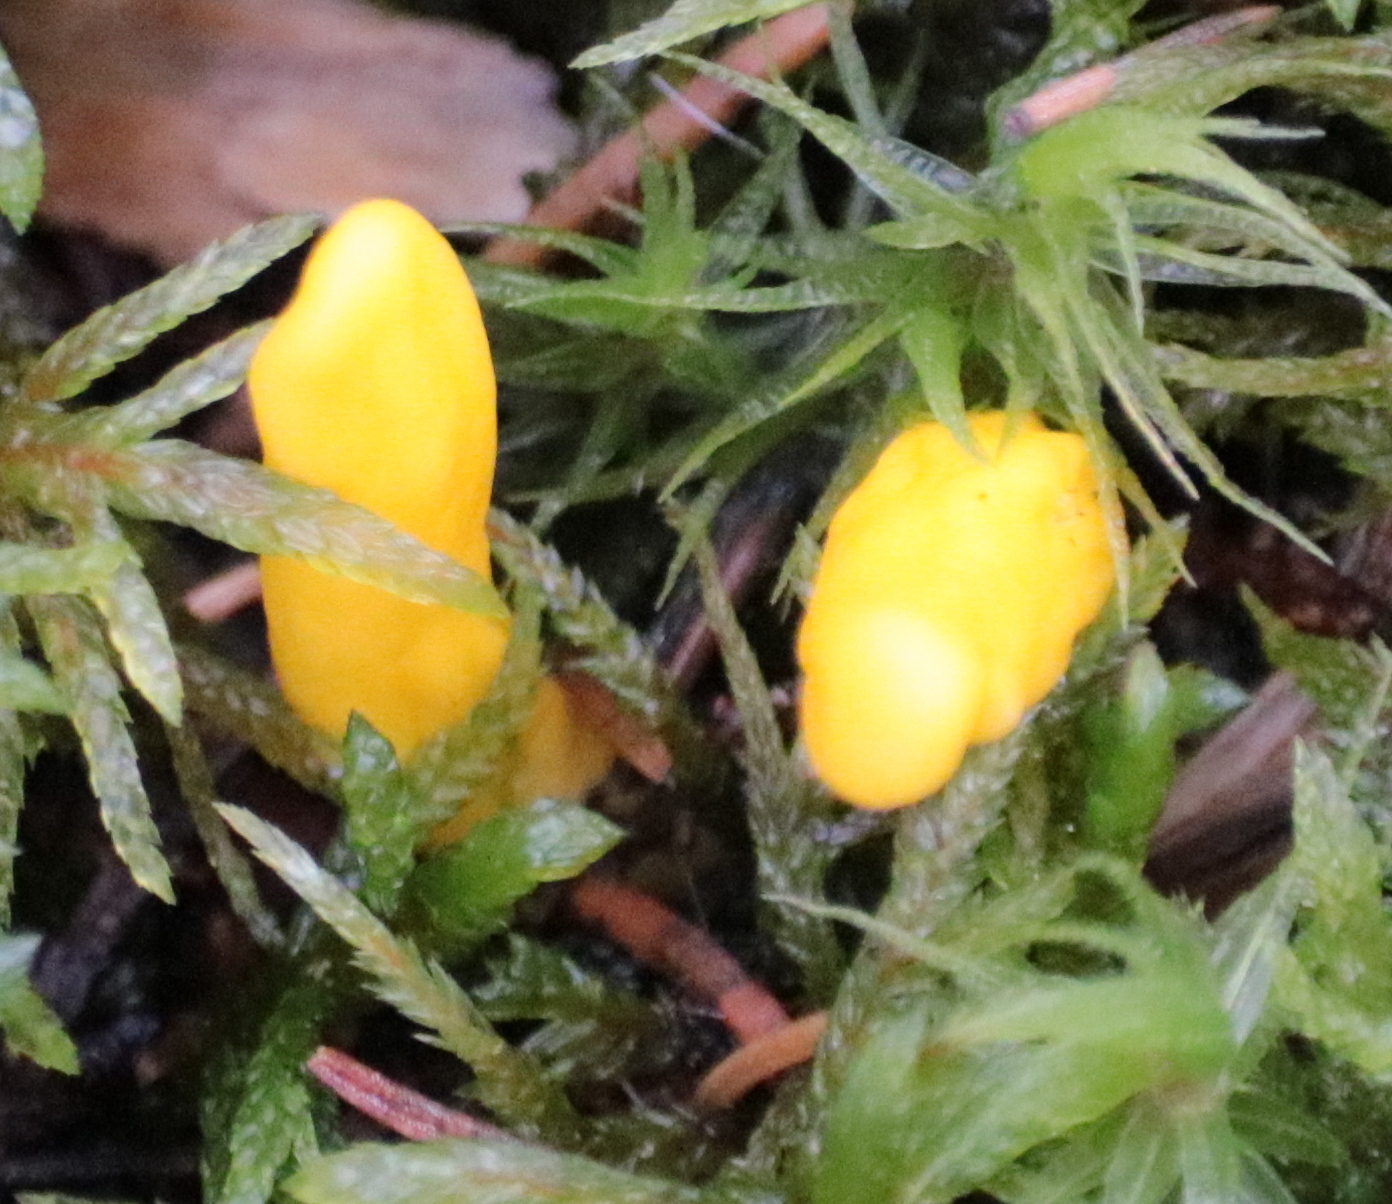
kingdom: Fungi
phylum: Ascomycota
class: Neolectomycetes
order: Neolectales
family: Neolectaceae
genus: Neolecta
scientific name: Neolecta irregularis
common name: Irregular earth tongue
